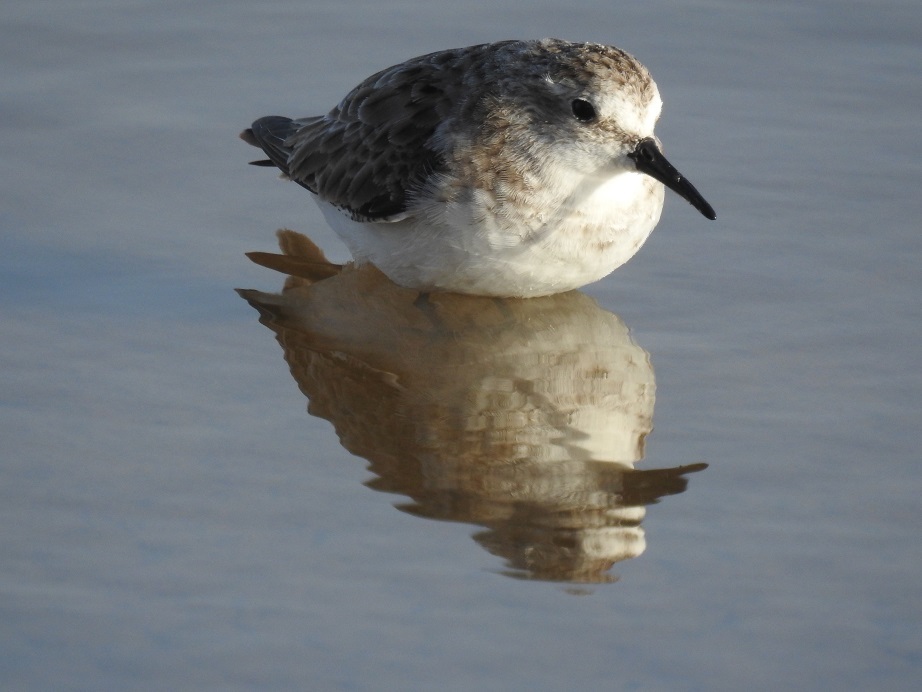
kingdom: Animalia
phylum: Chordata
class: Aves
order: Charadriiformes
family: Scolopacidae
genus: Calidris
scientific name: Calidris minuta
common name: Little stint
